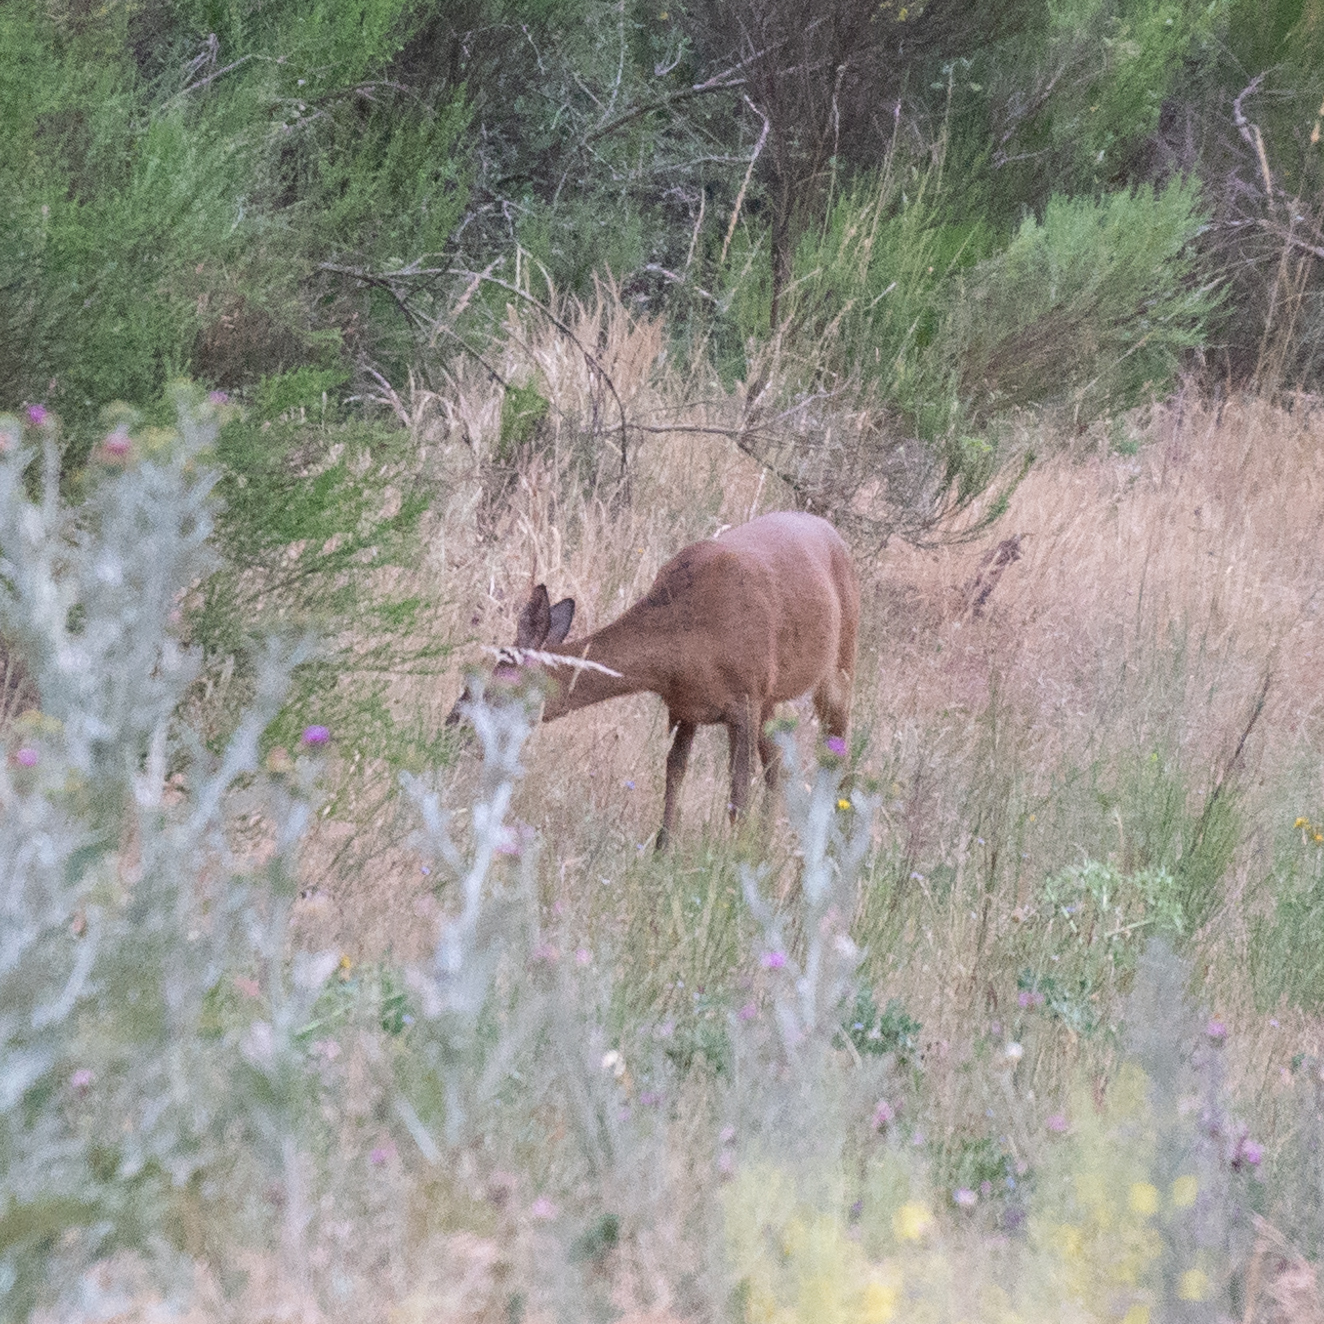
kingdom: Animalia
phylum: Chordata
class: Mammalia
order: Artiodactyla
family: Cervidae
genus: Capreolus
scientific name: Capreolus capreolus
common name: Western roe deer
